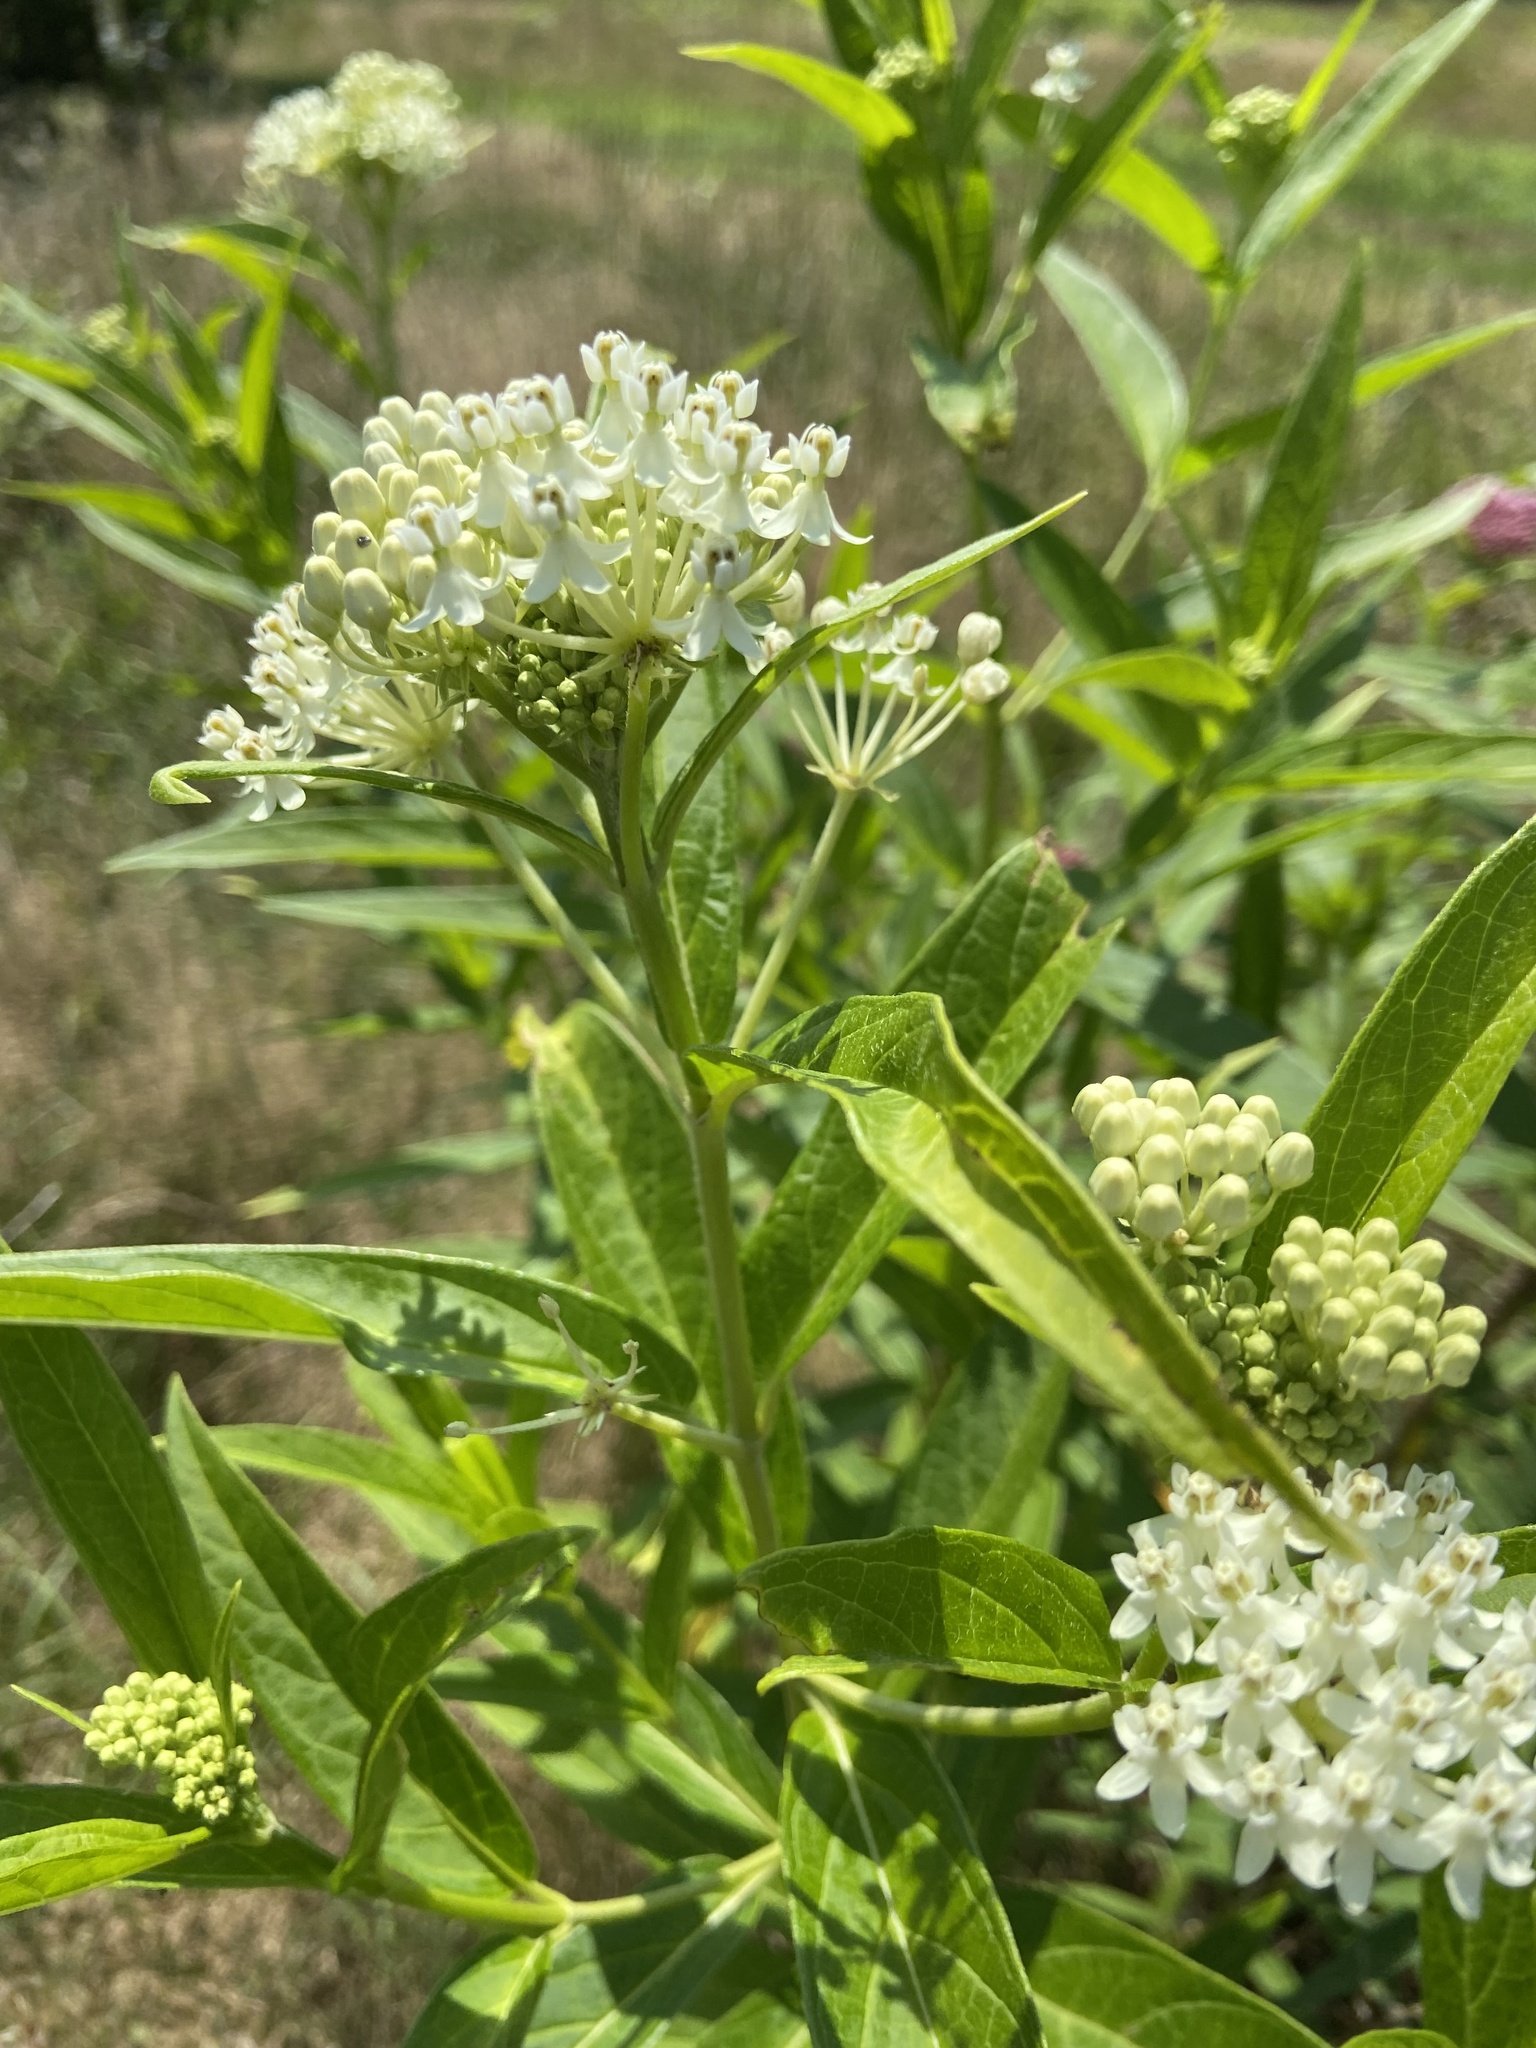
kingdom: Plantae
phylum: Tracheophyta
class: Magnoliopsida
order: Gentianales
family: Apocynaceae
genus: Asclepias
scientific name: Asclepias incarnata
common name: Swamp milkweed
